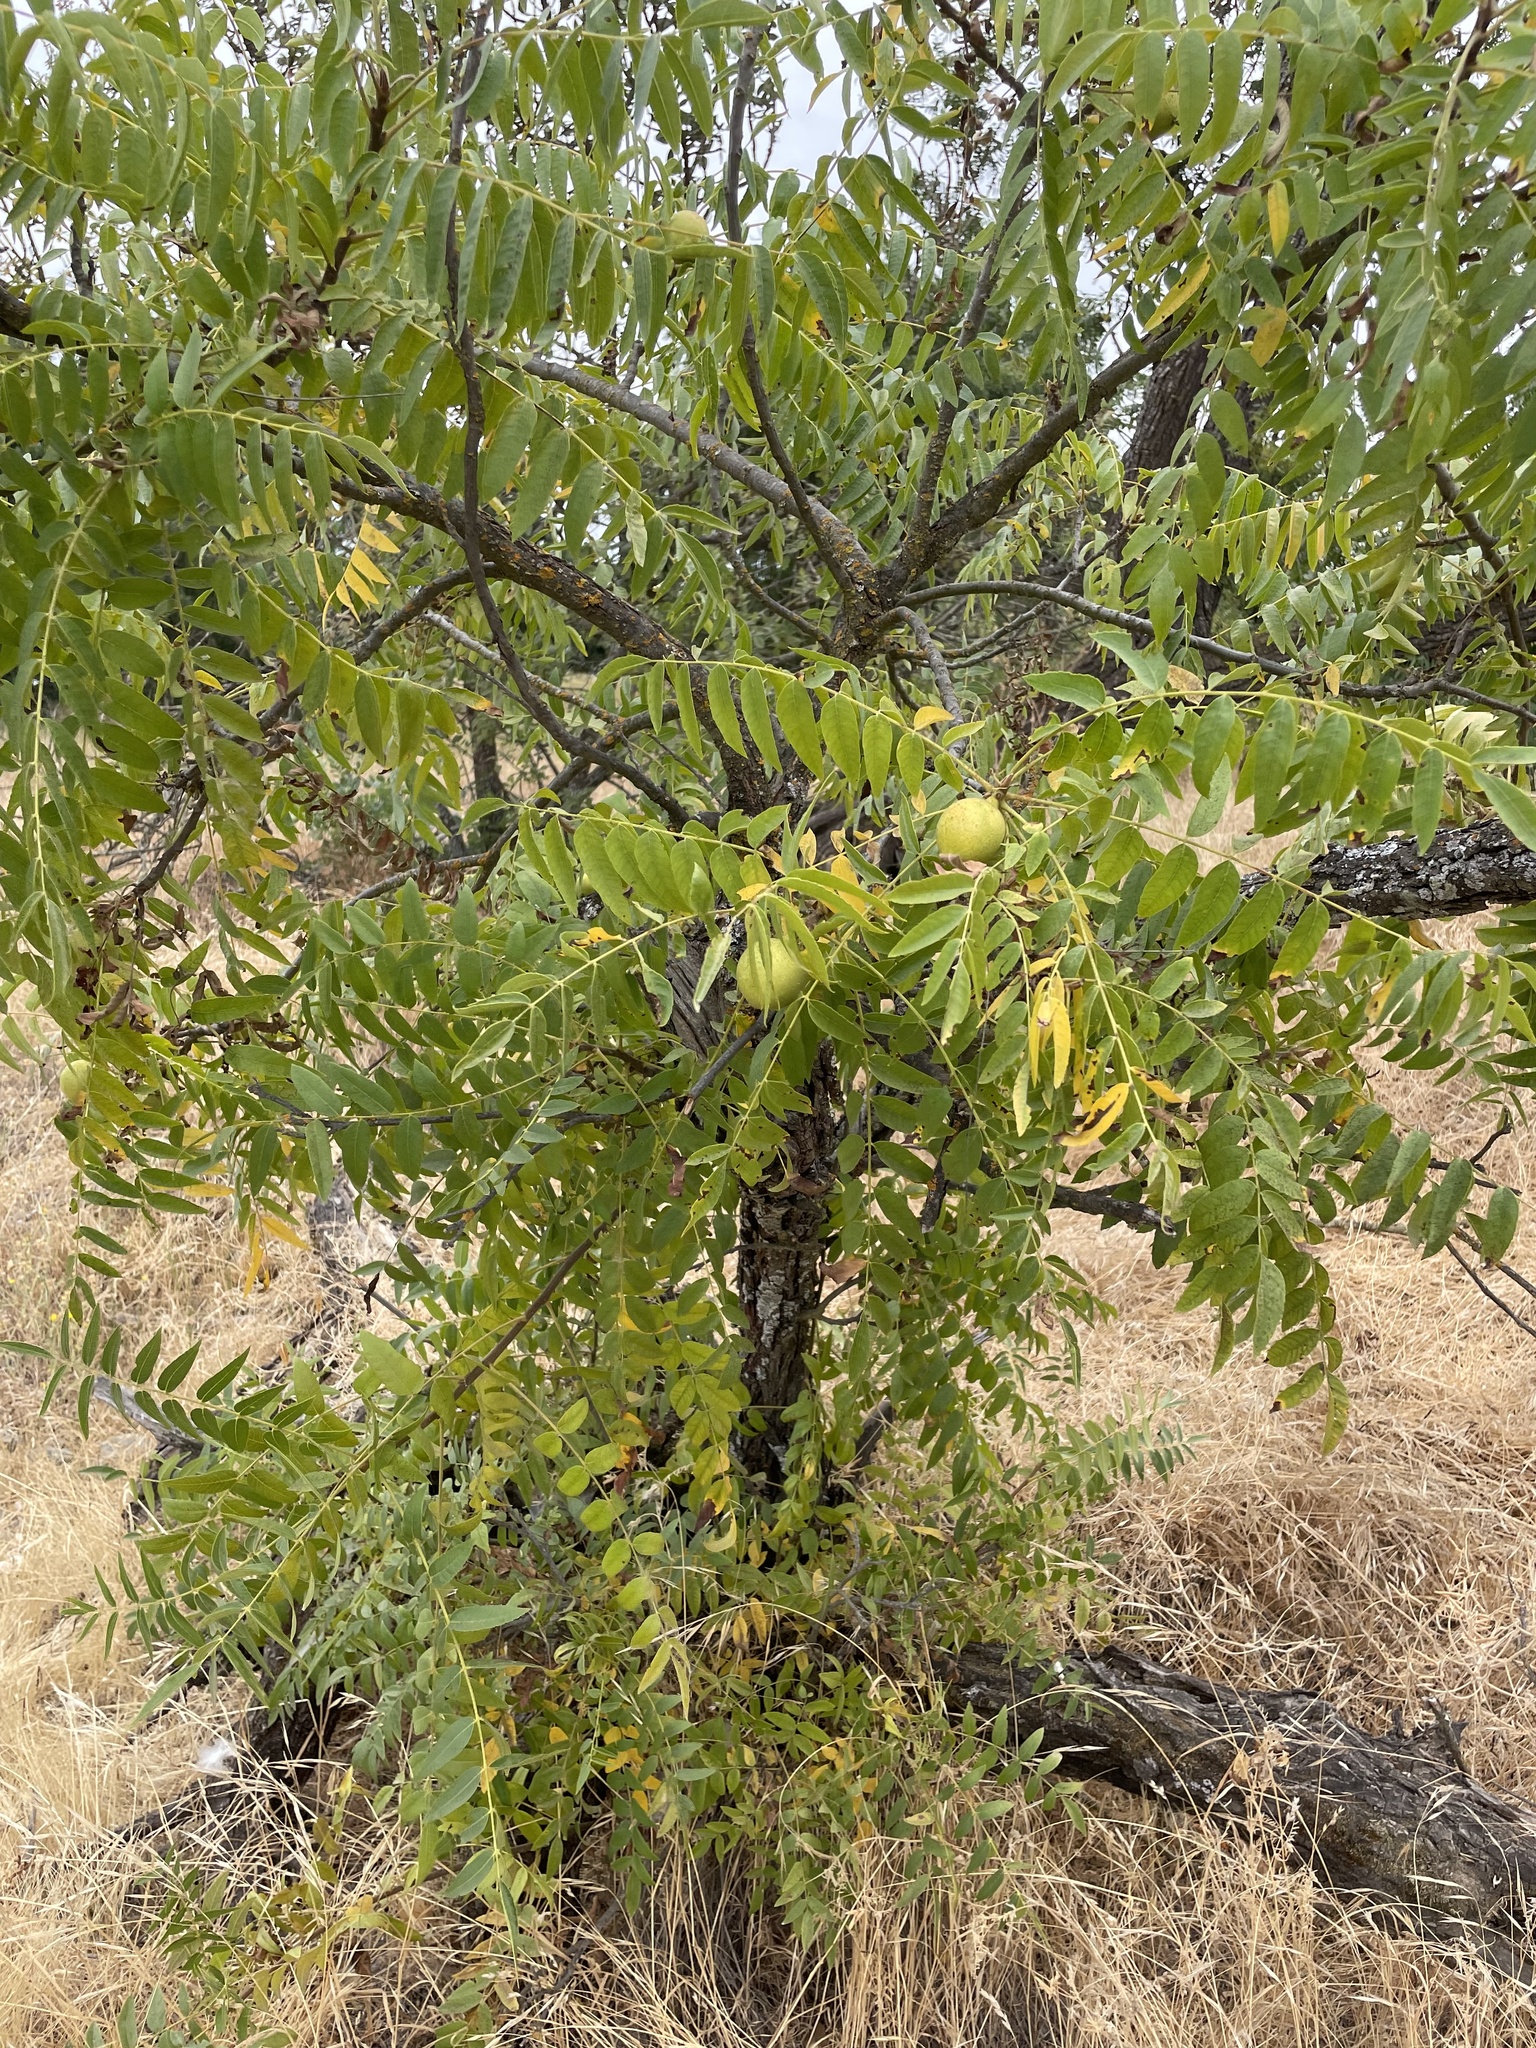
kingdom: Plantae
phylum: Tracheophyta
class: Magnoliopsida
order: Fagales
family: Juglandaceae
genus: Juglans
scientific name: Juglans hindsii
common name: Northern california black walnut
